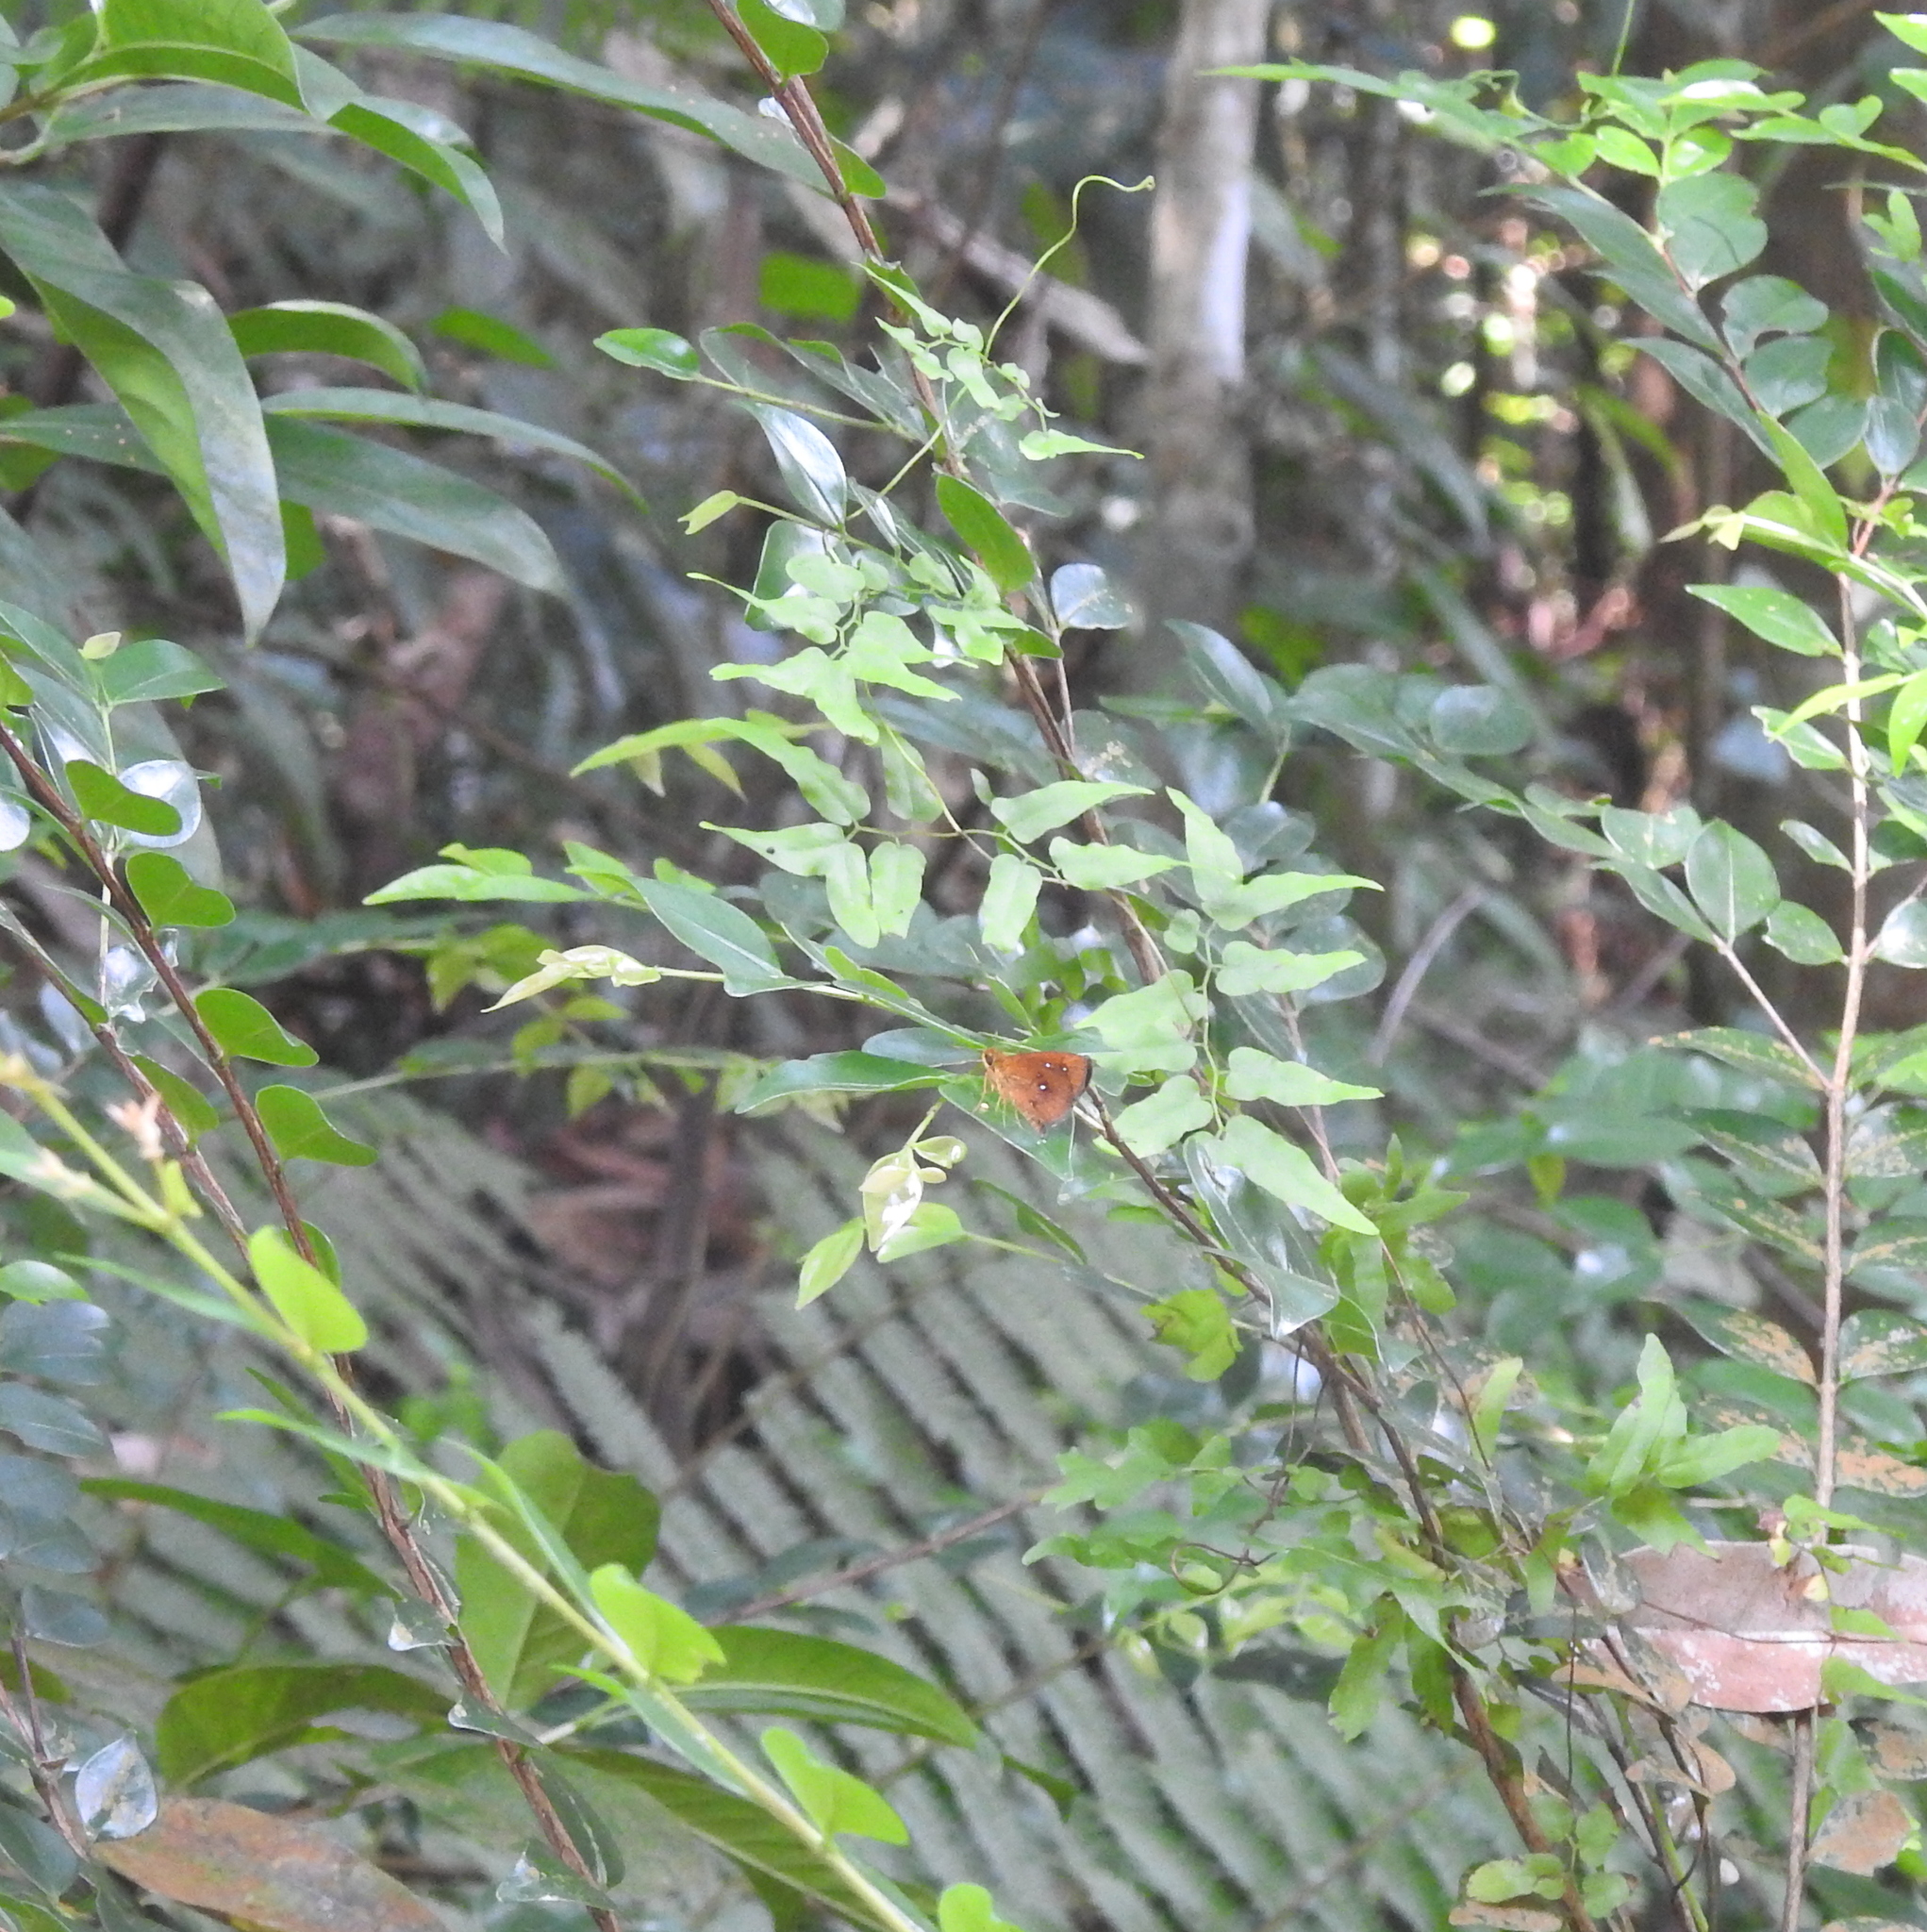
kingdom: Animalia
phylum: Arthropoda
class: Insecta
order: Lepidoptera
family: Hesperiidae
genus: Iambrix
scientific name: Iambrix salsala
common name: Chestnut bob
